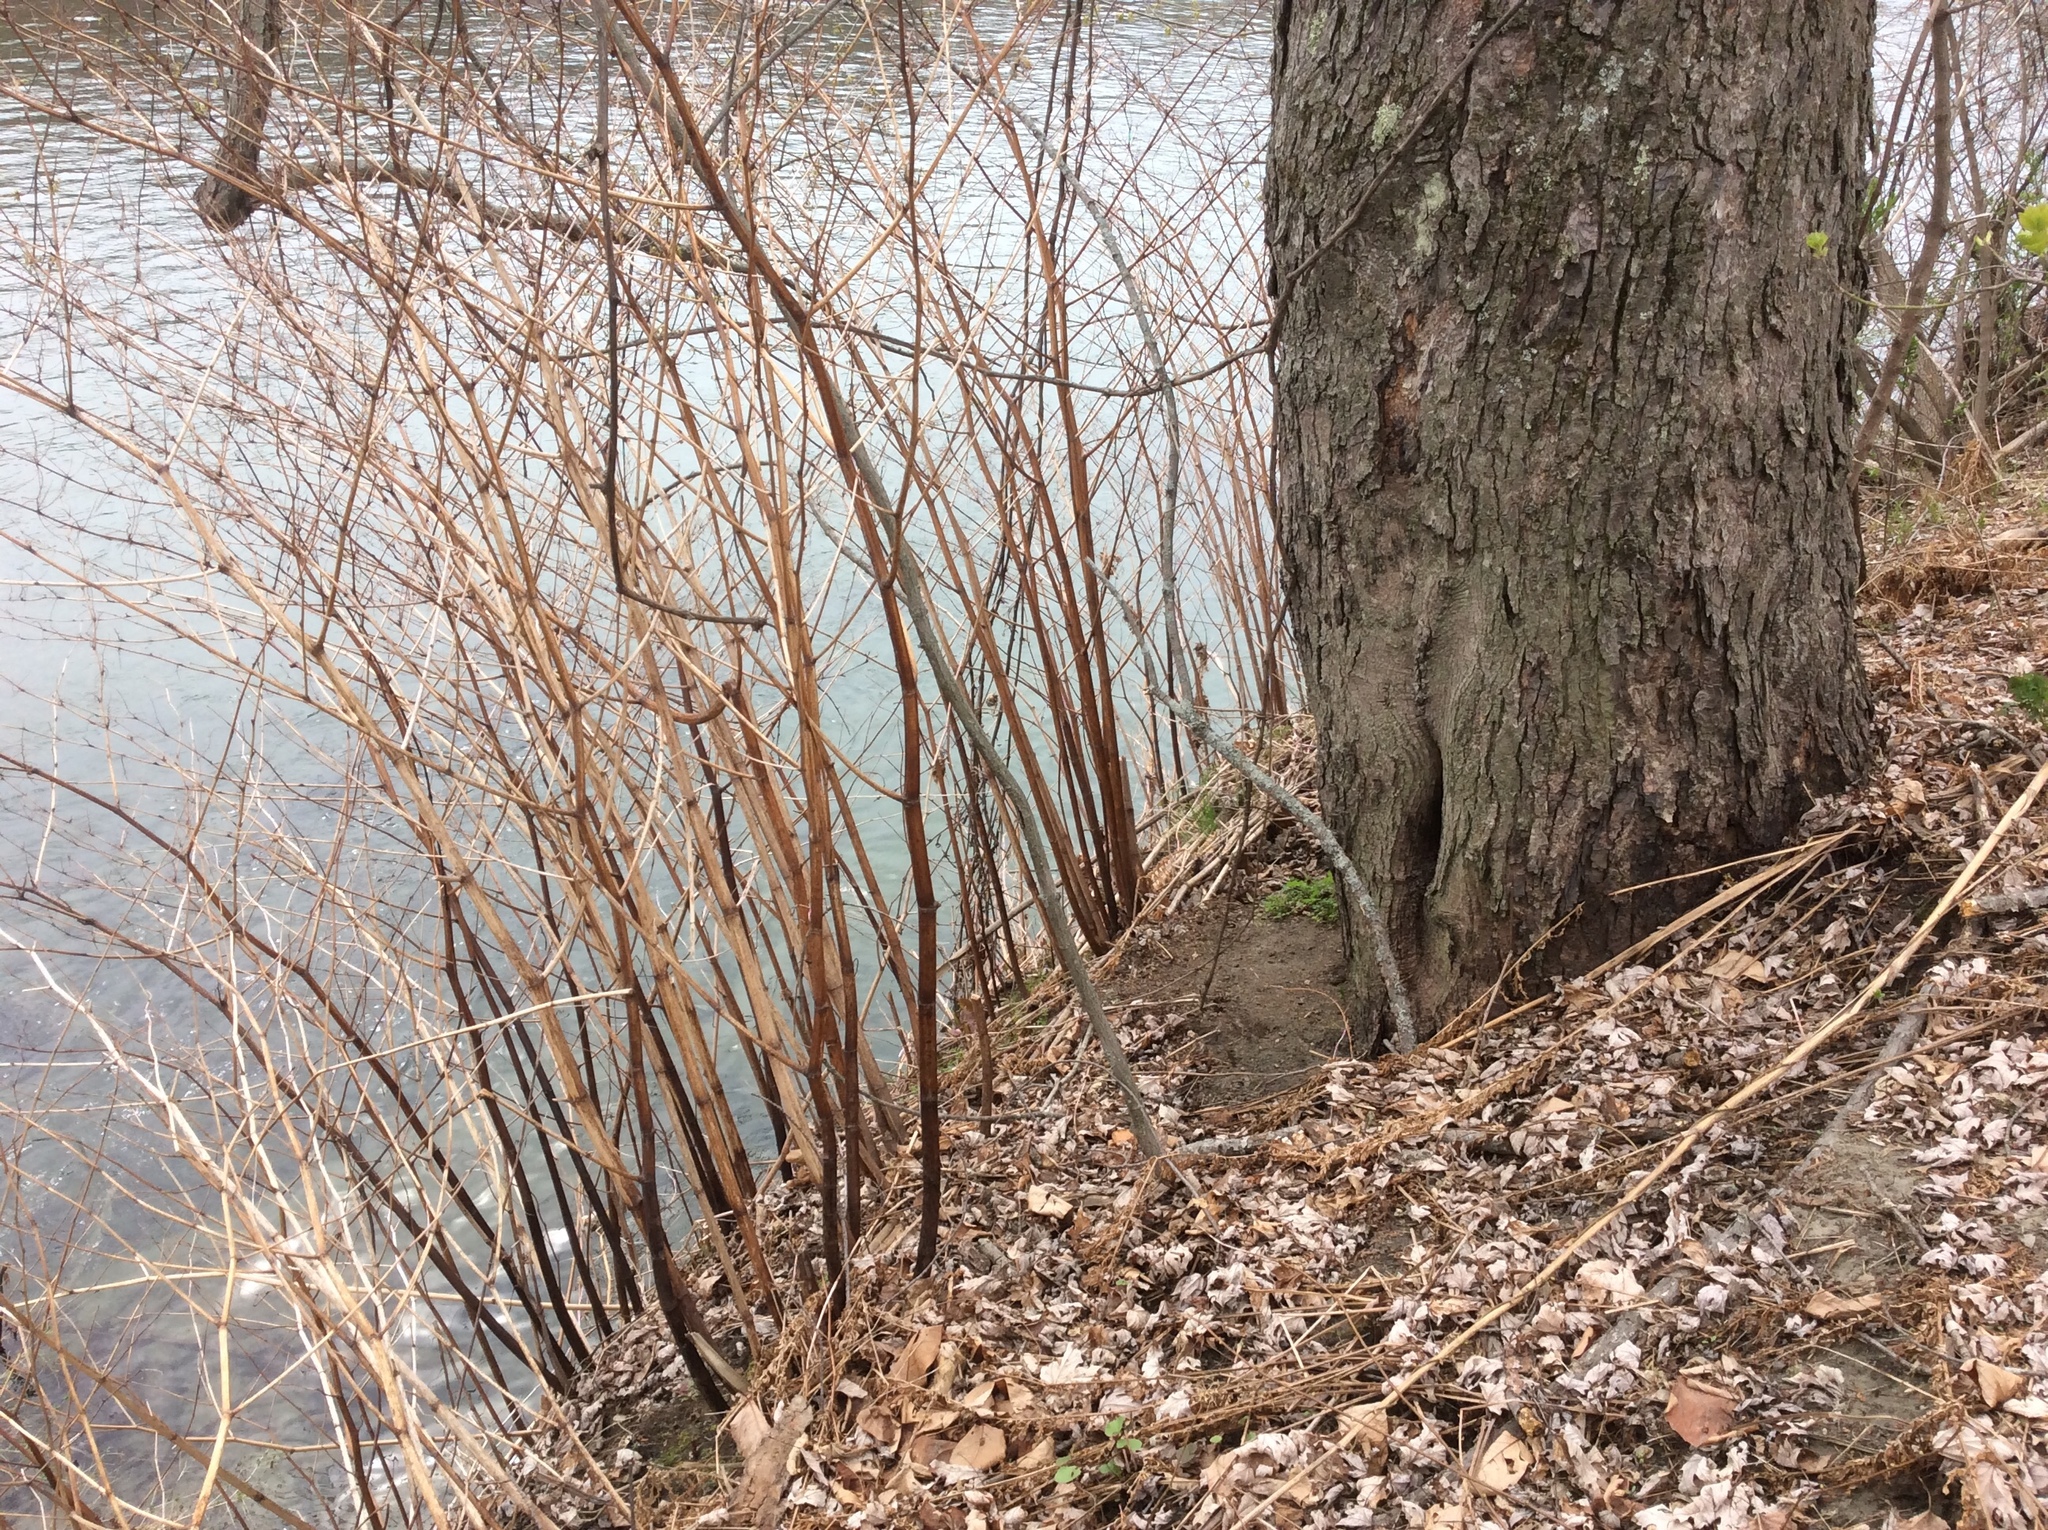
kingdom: Plantae
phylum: Tracheophyta
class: Magnoliopsida
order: Caryophyllales
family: Polygonaceae
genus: Reynoutria
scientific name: Reynoutria japonica
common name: Japanese knotweed
